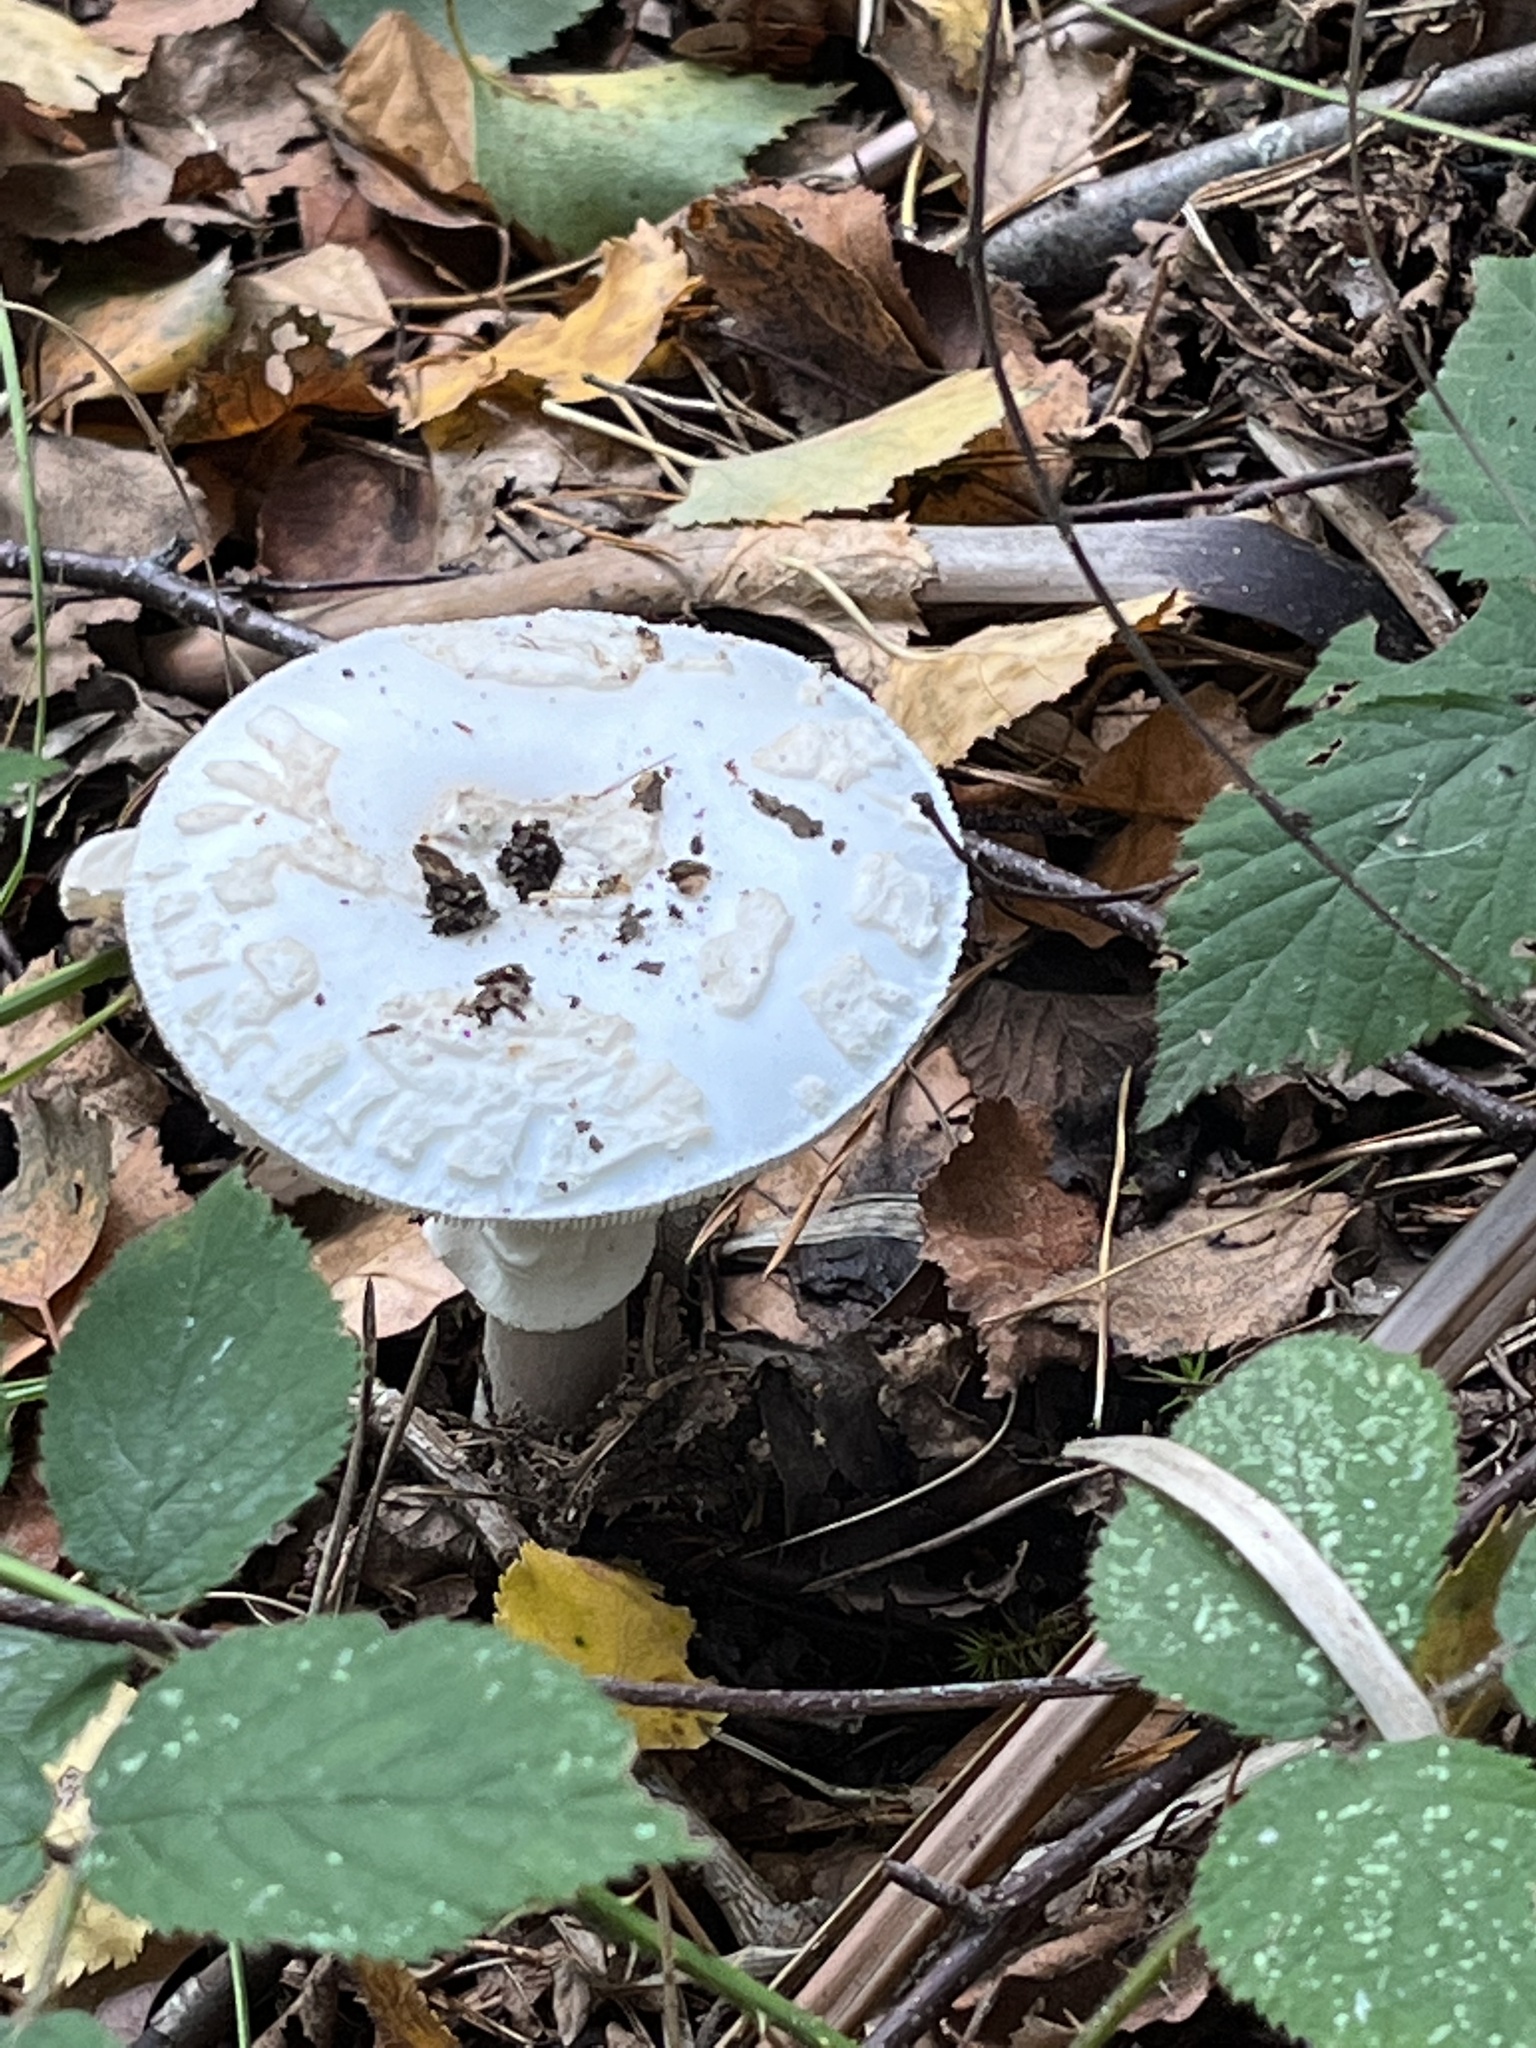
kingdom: Fungi
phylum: Basidiomycota
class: Agaricomycetes
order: Agaricales
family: Amanitaceae
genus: Amanita
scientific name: Amanita citrina
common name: False death-cap
